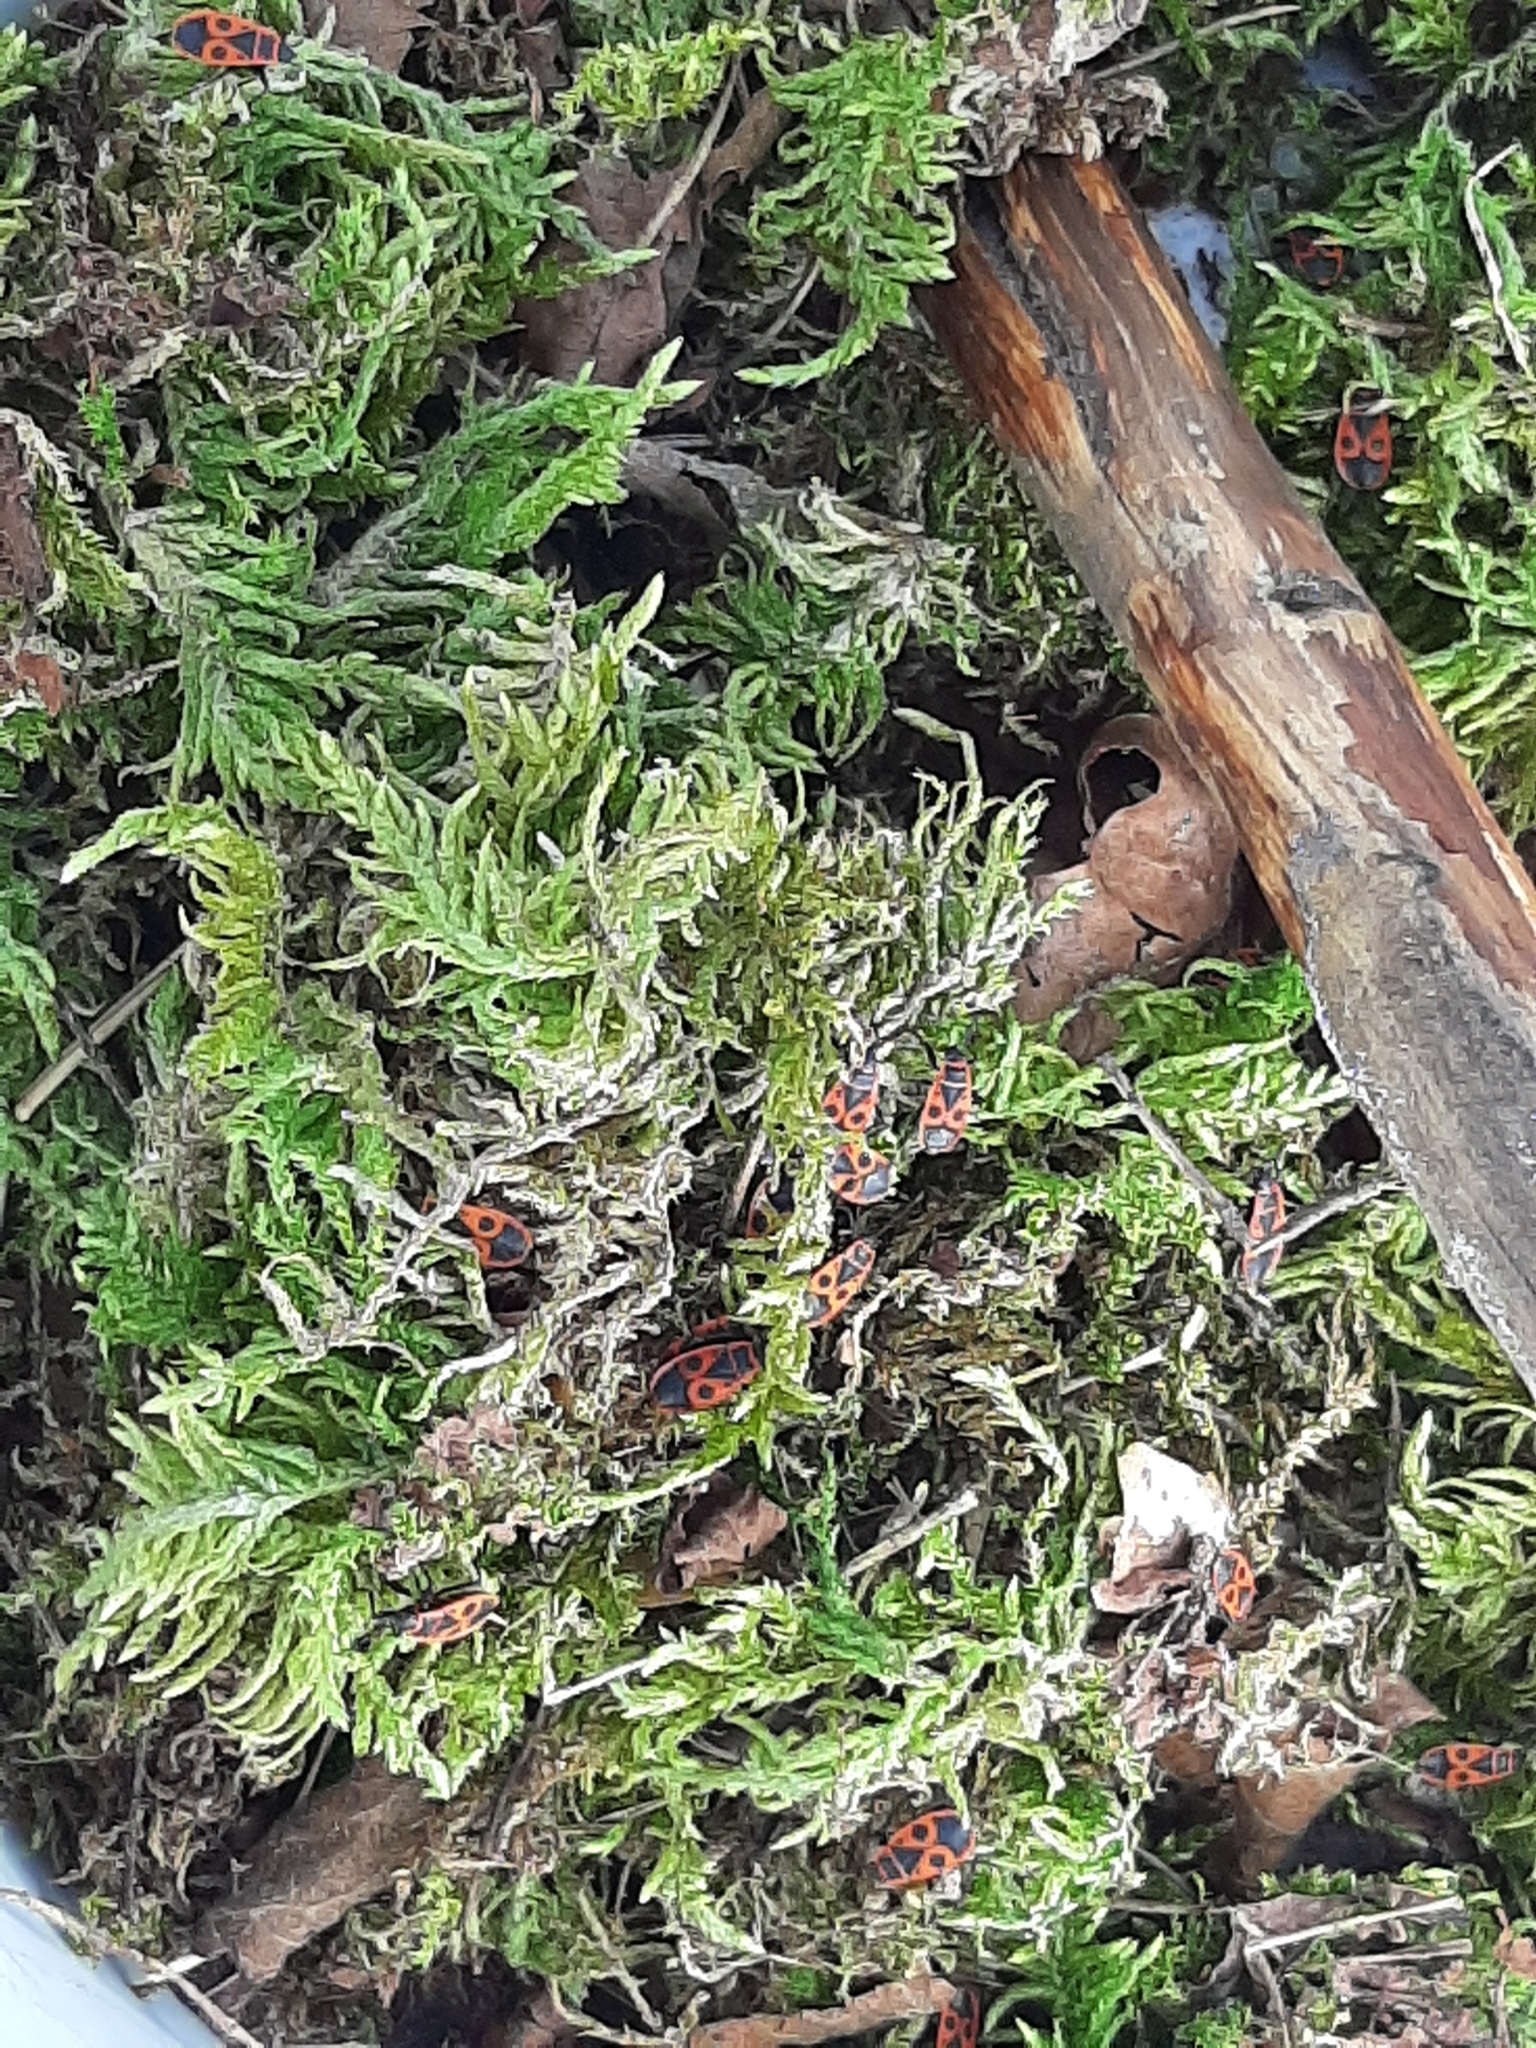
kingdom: Animalia
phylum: Arthropoda
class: Insecta
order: Hemiptera
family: Pyrrhocoridae
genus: Pyrrhocoris
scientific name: Pyrrhocoris apterus
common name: Firebug
